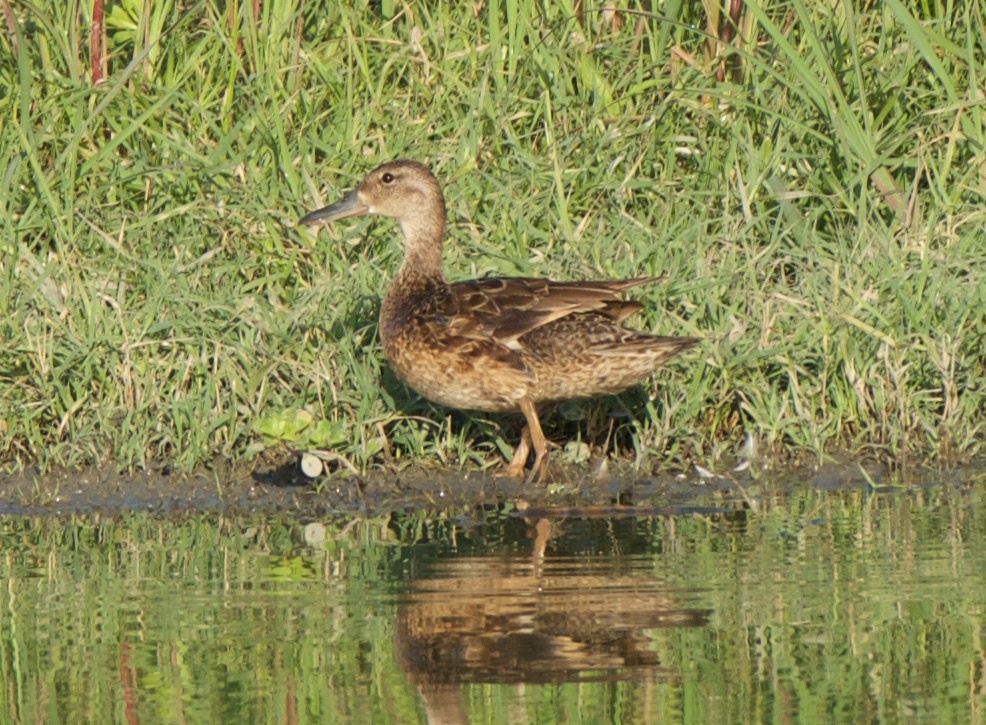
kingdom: Animalia
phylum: Chordata
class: Aves
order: Anseriformes
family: Anatidae
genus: Spatula
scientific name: Spatula clypeata
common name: Northern shoveler
